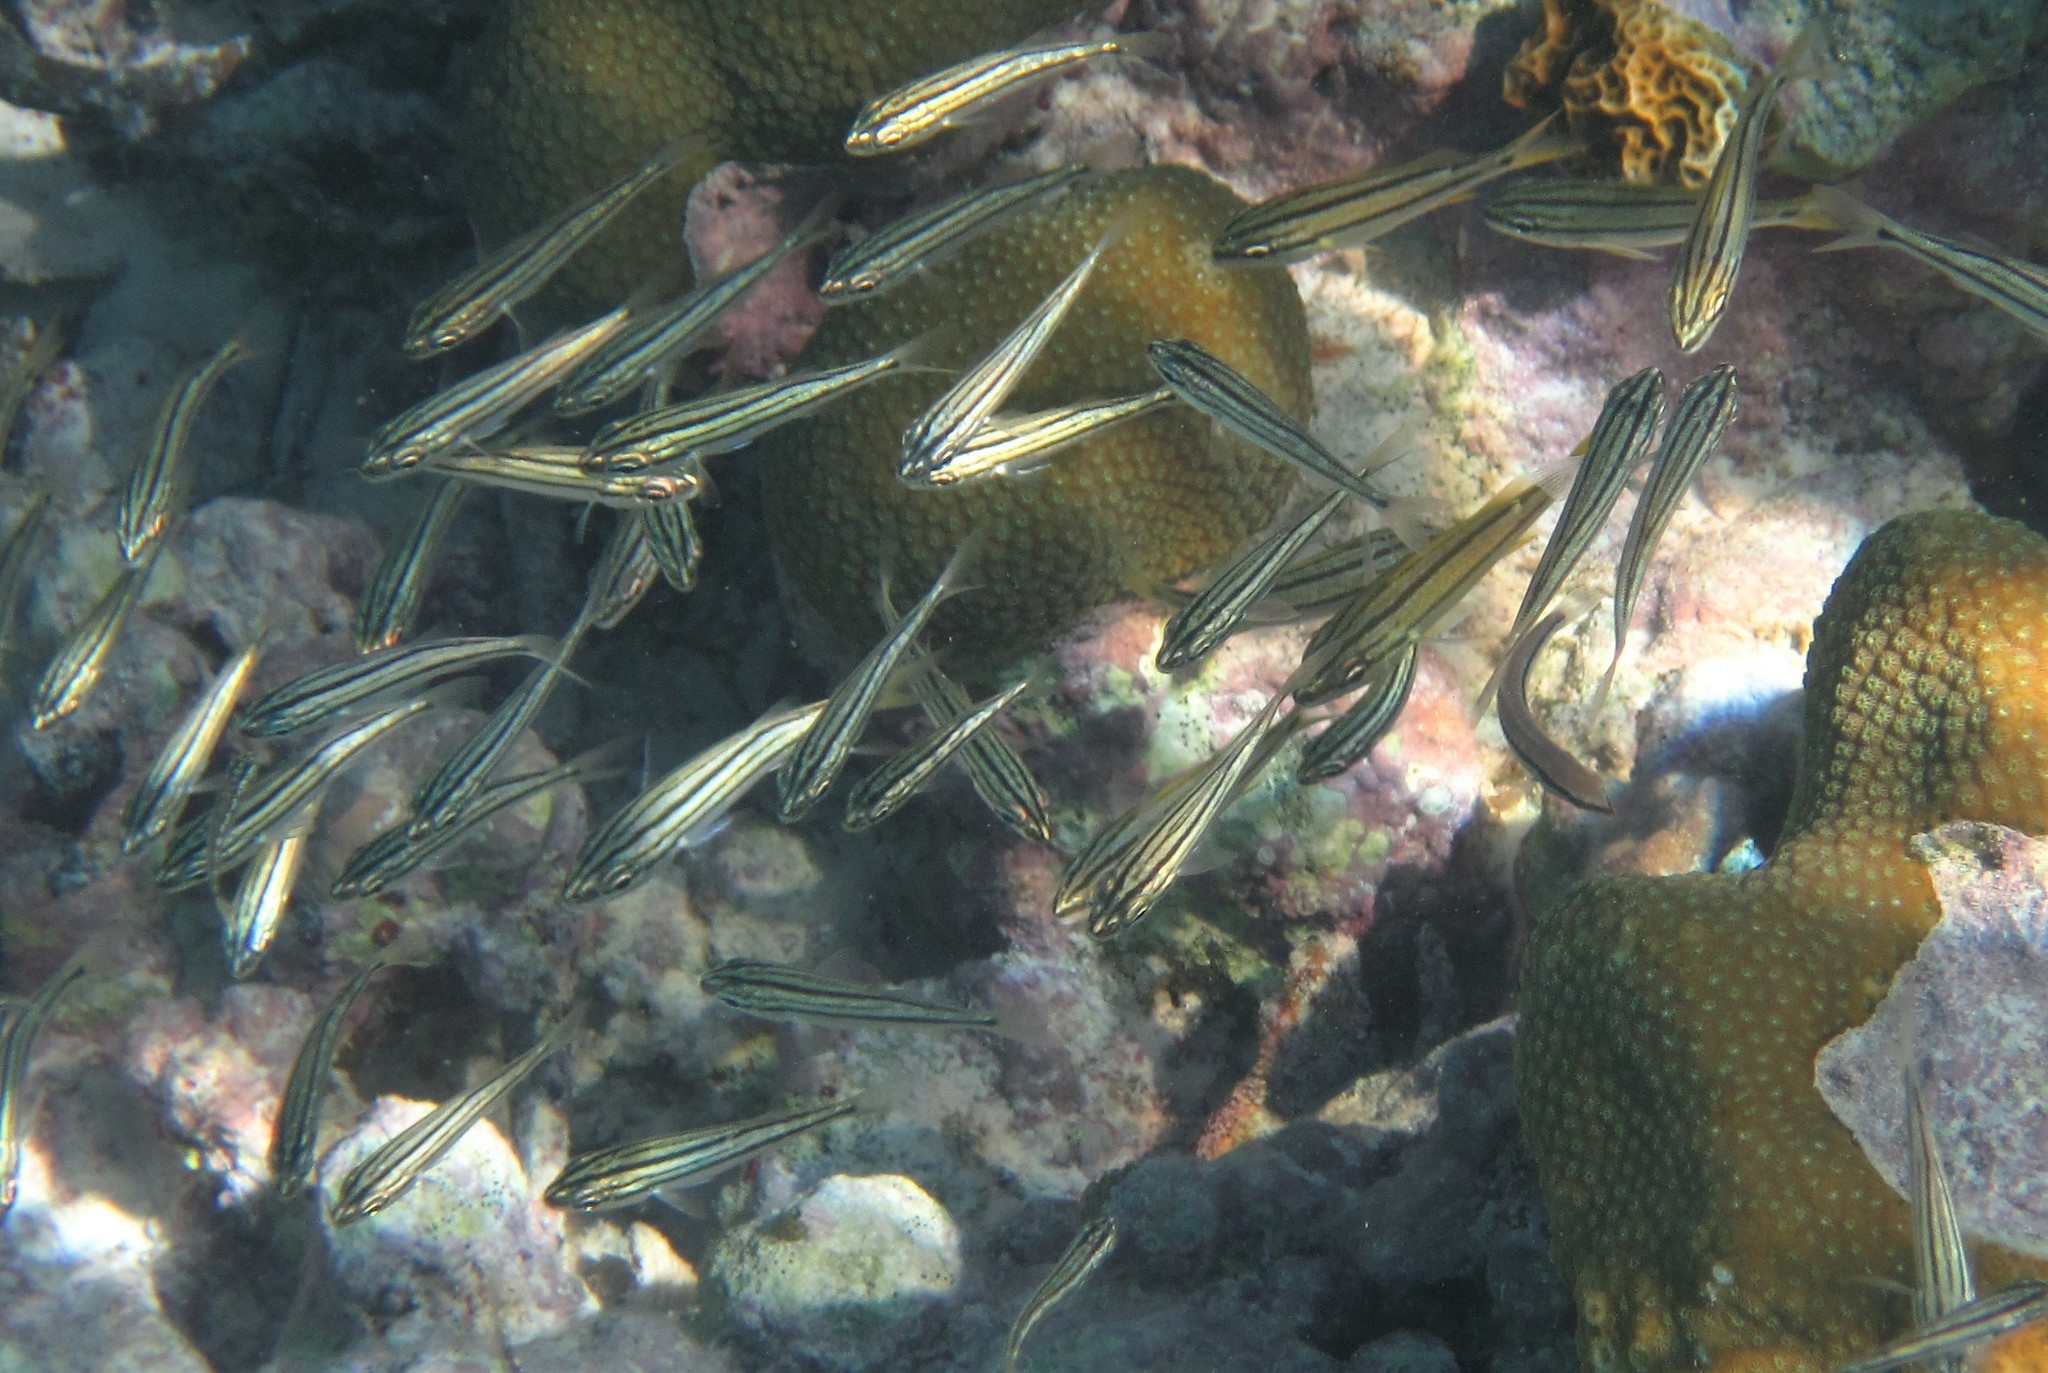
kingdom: Animalia
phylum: Chordata
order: Perciformes
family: Haemulidae
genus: Haemulon
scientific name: Haemulon chrysargyreum
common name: Smallmouth grunt
